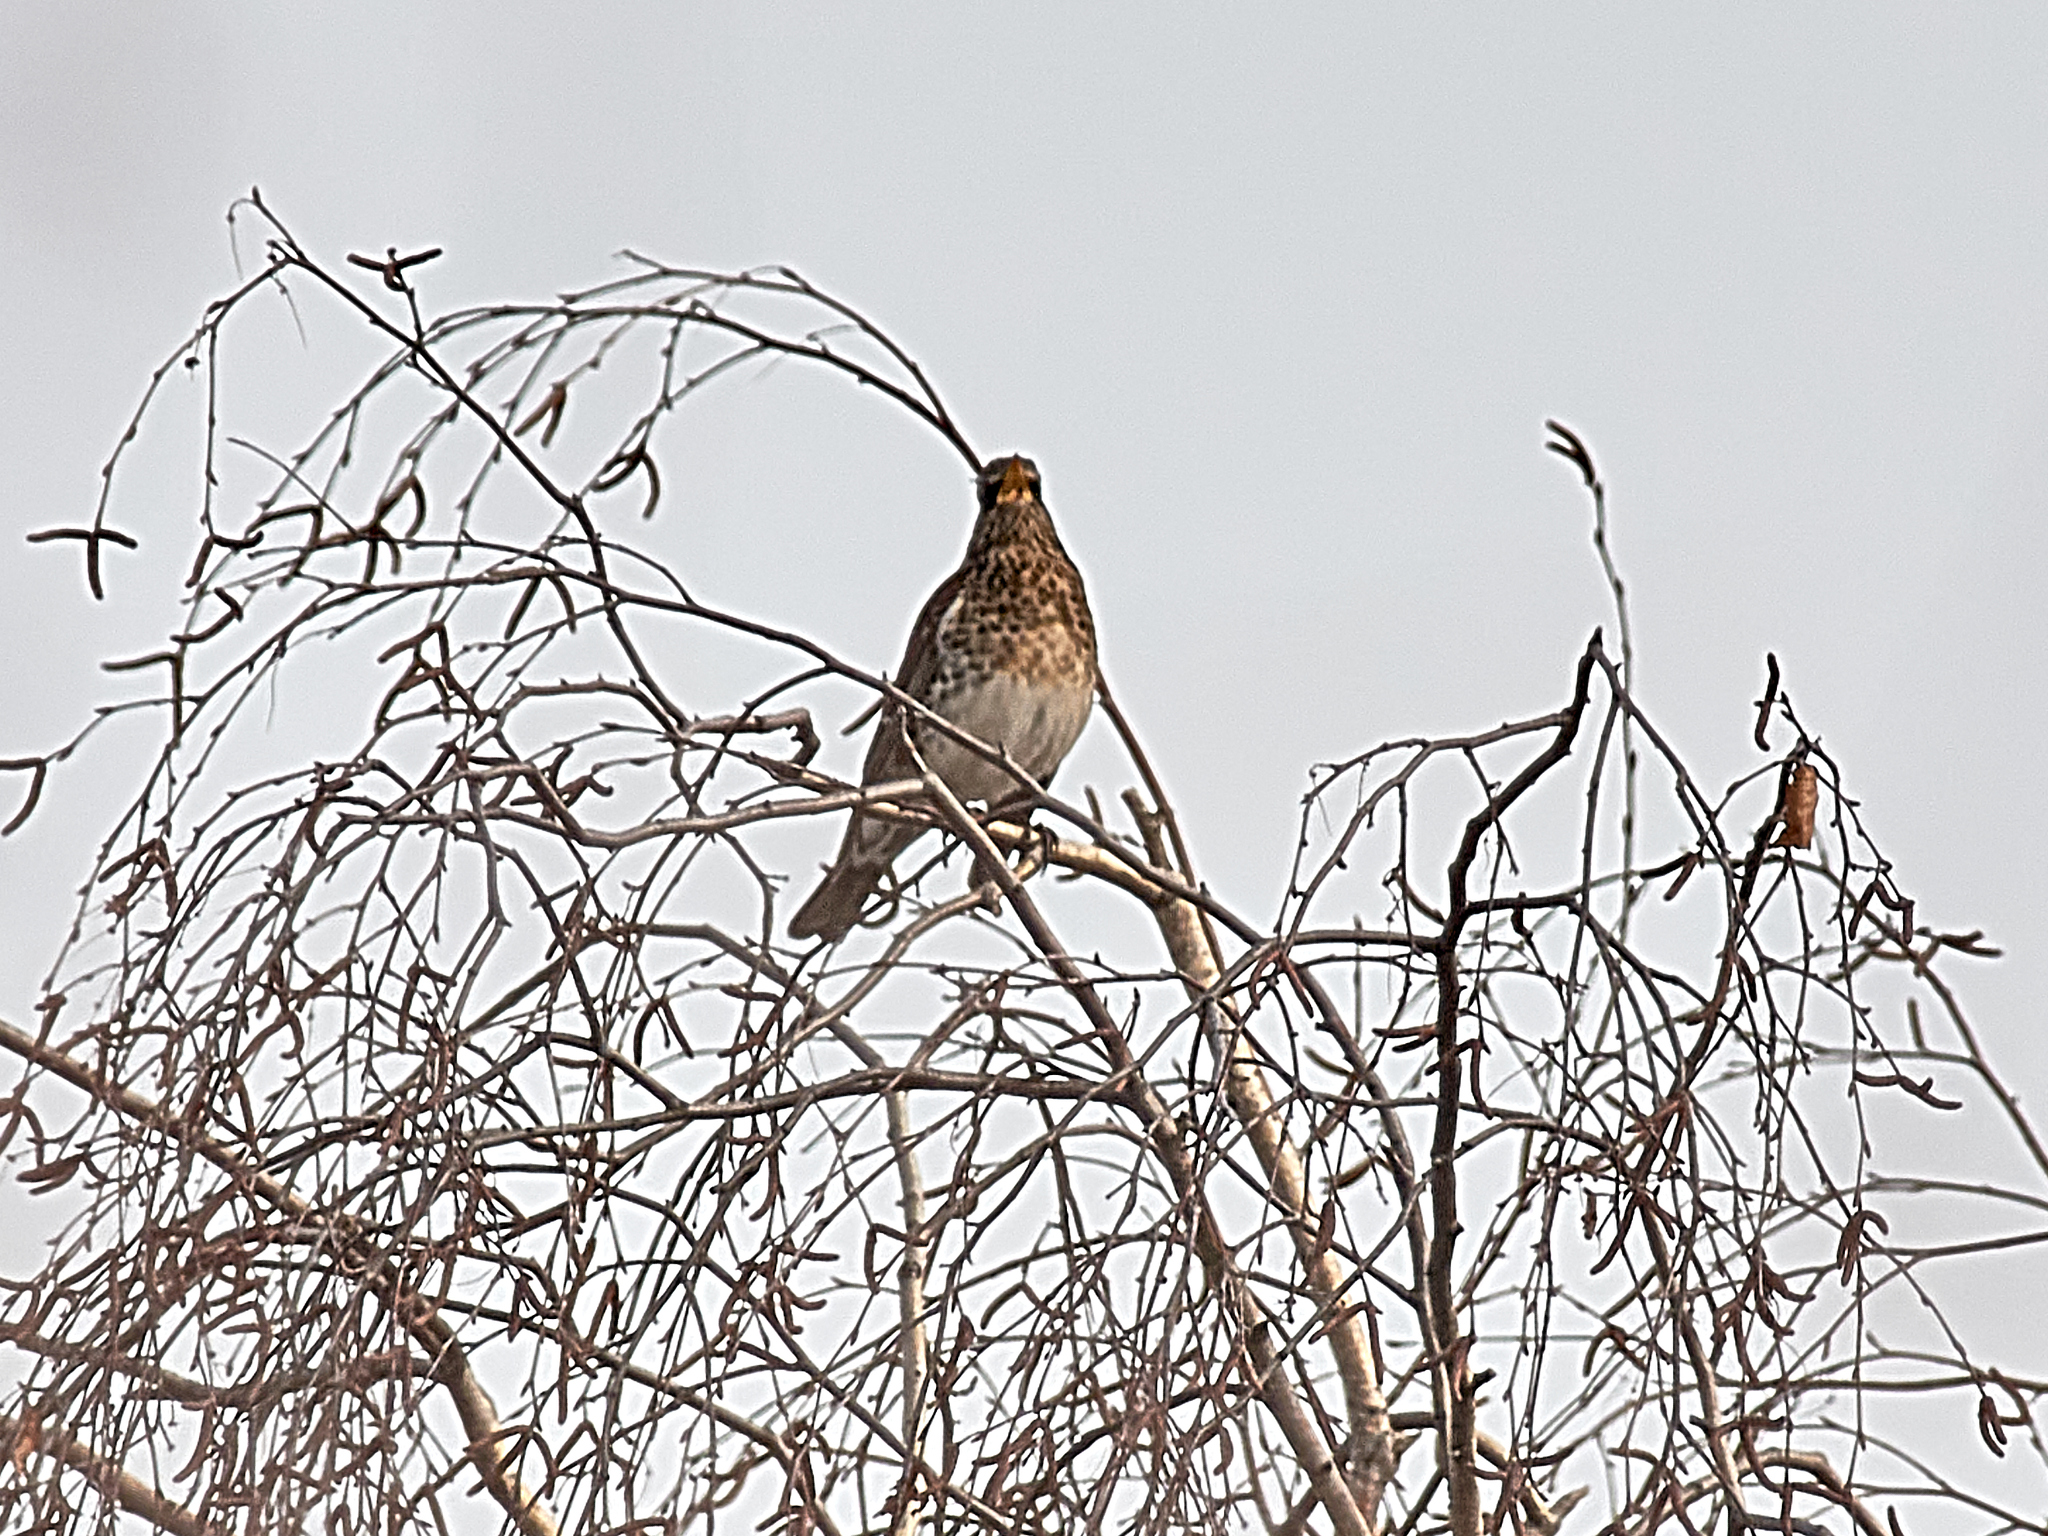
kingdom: Animalia
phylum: Chordata
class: Aves
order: Passeriformes
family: Turdidae
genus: Turdus
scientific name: Turdus pilaris
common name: Fieldfare
